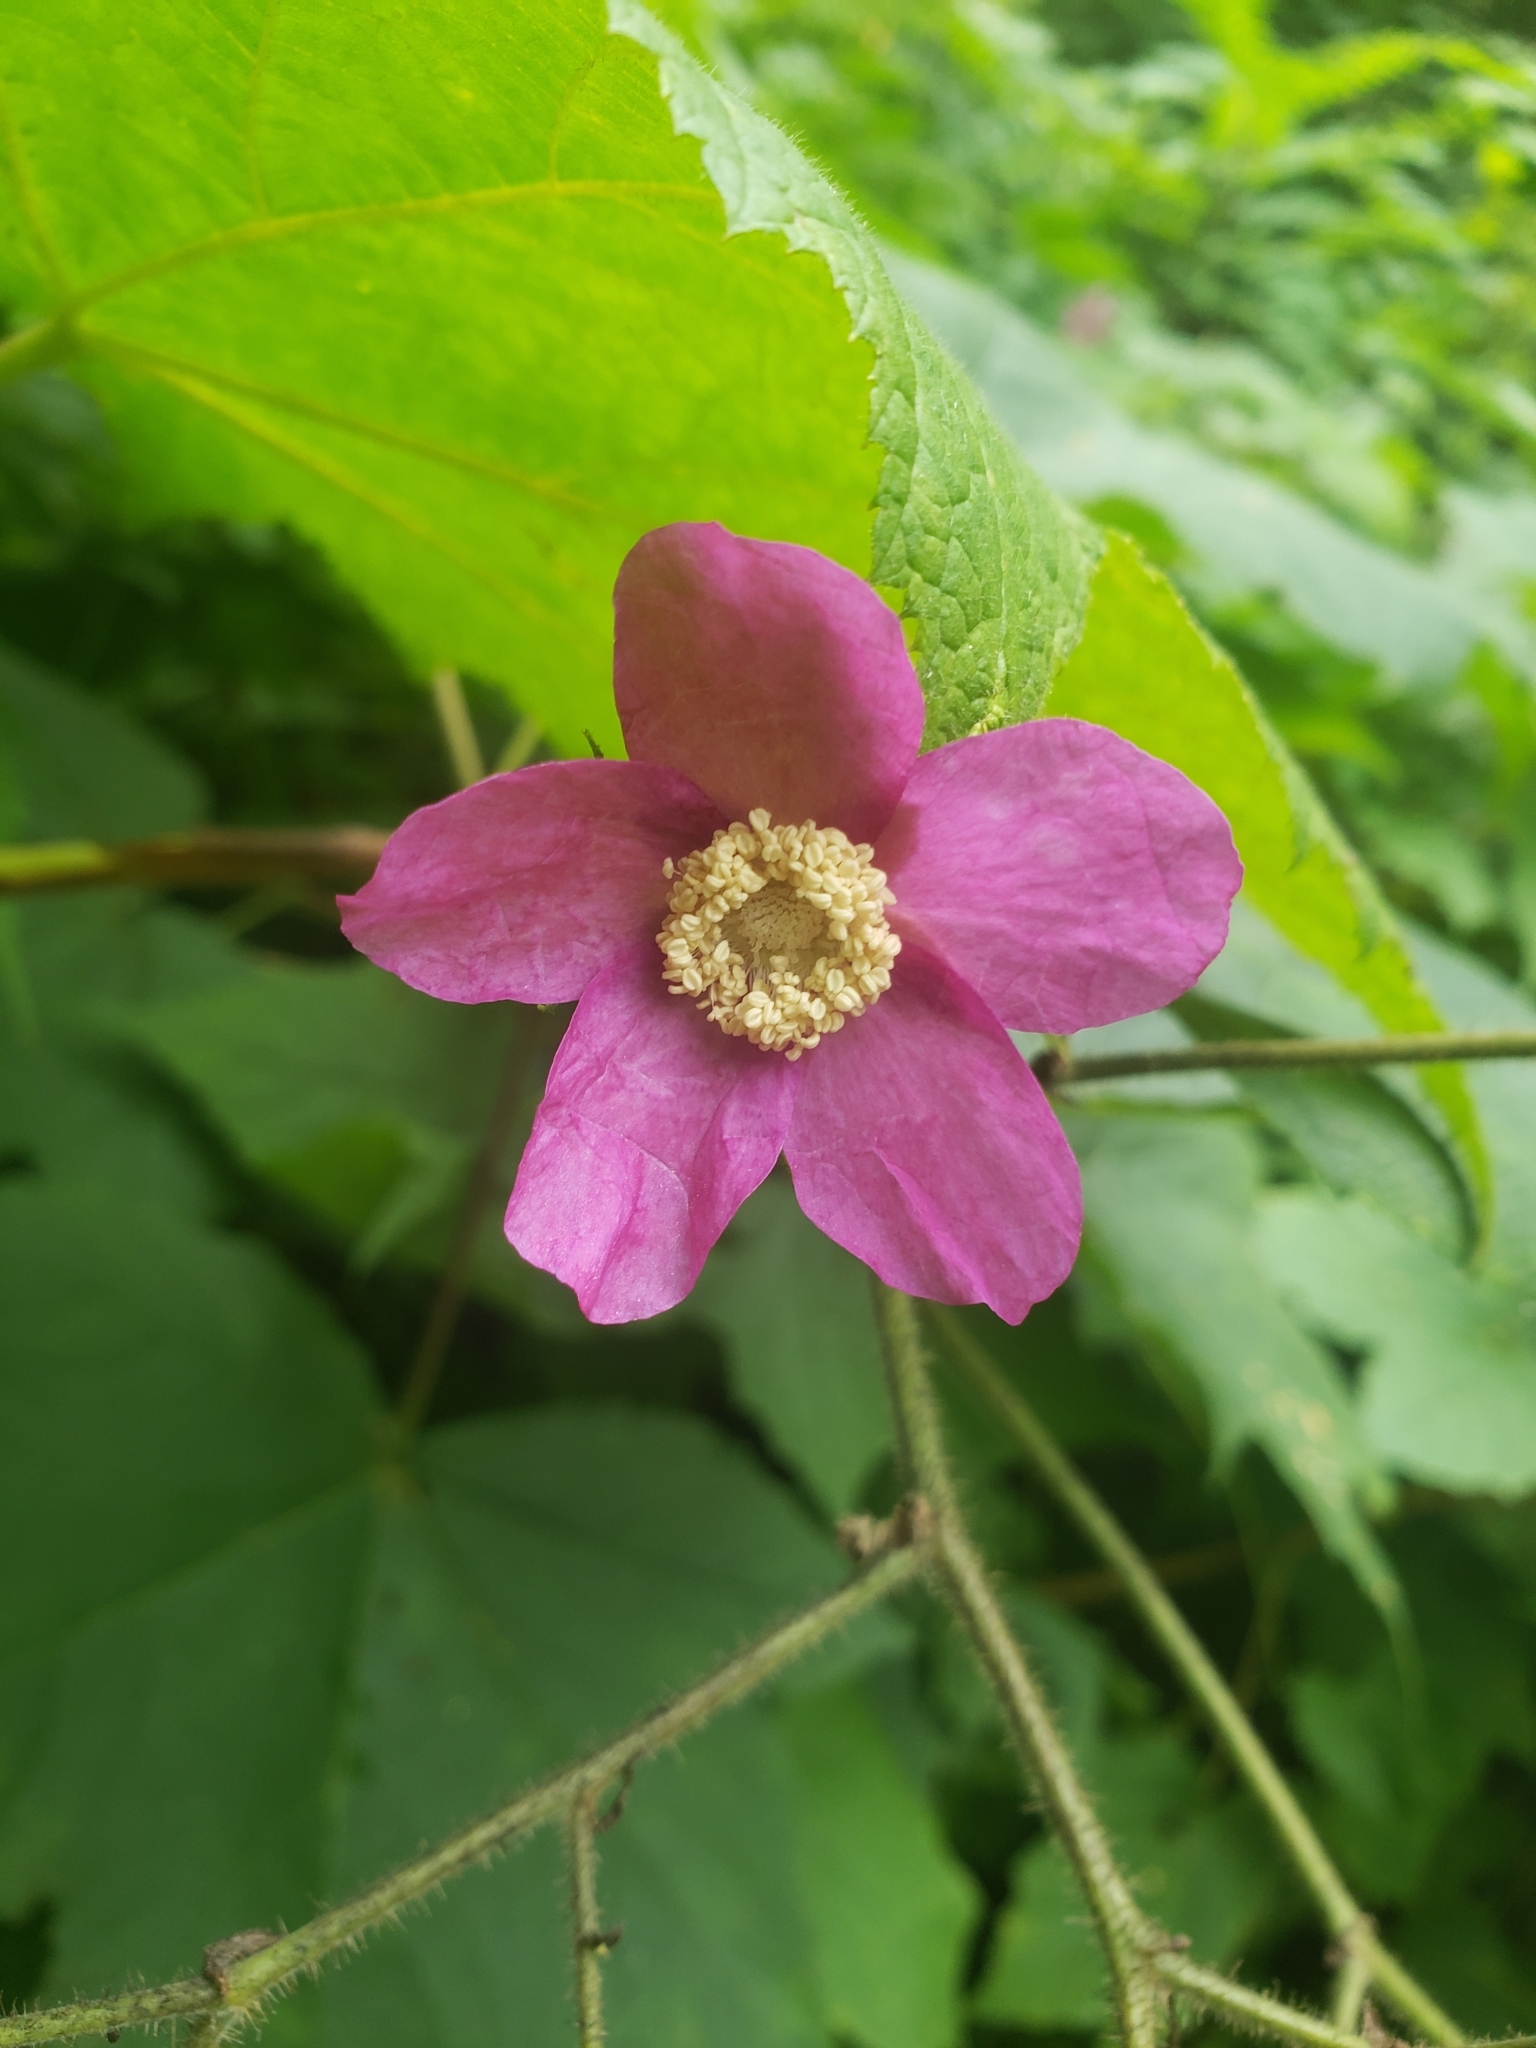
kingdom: Plantae
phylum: Tracheophyta
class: Magnoliopsida
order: Rosales
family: Rosaceae
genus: Rubus
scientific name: Rubus odoratus
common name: Purple-flowered raspberry
